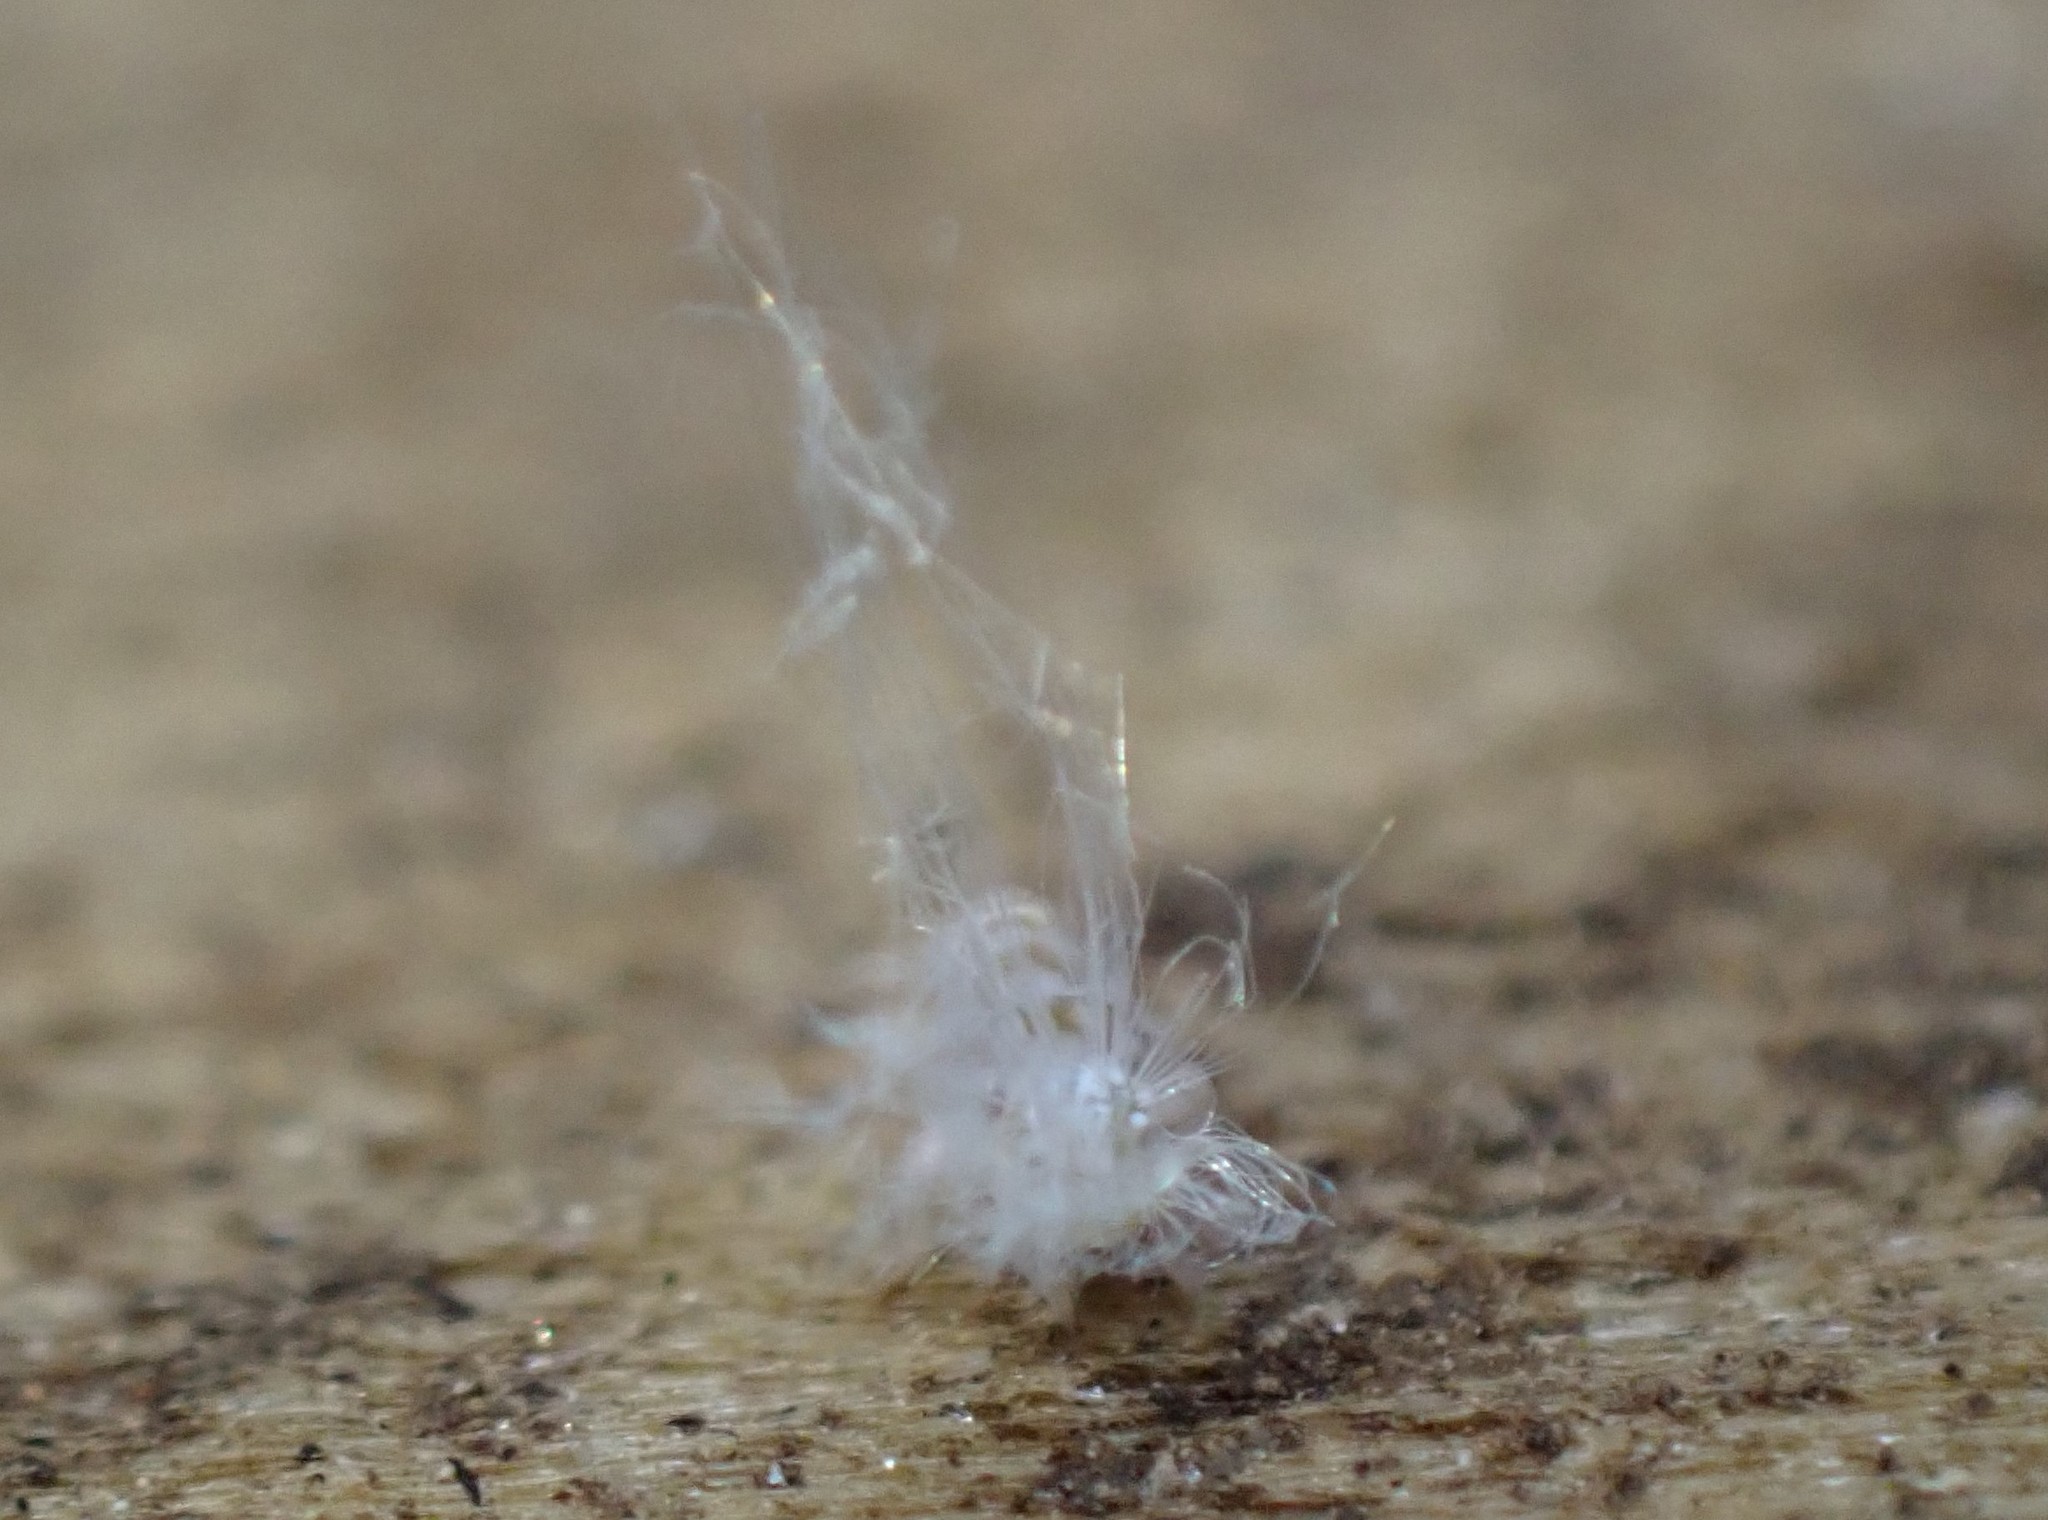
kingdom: Animalia
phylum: Arthropoda
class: Insecta
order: Hemiptera
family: Ricaniidae
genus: Scolypopa
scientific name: Scolypopa australis
